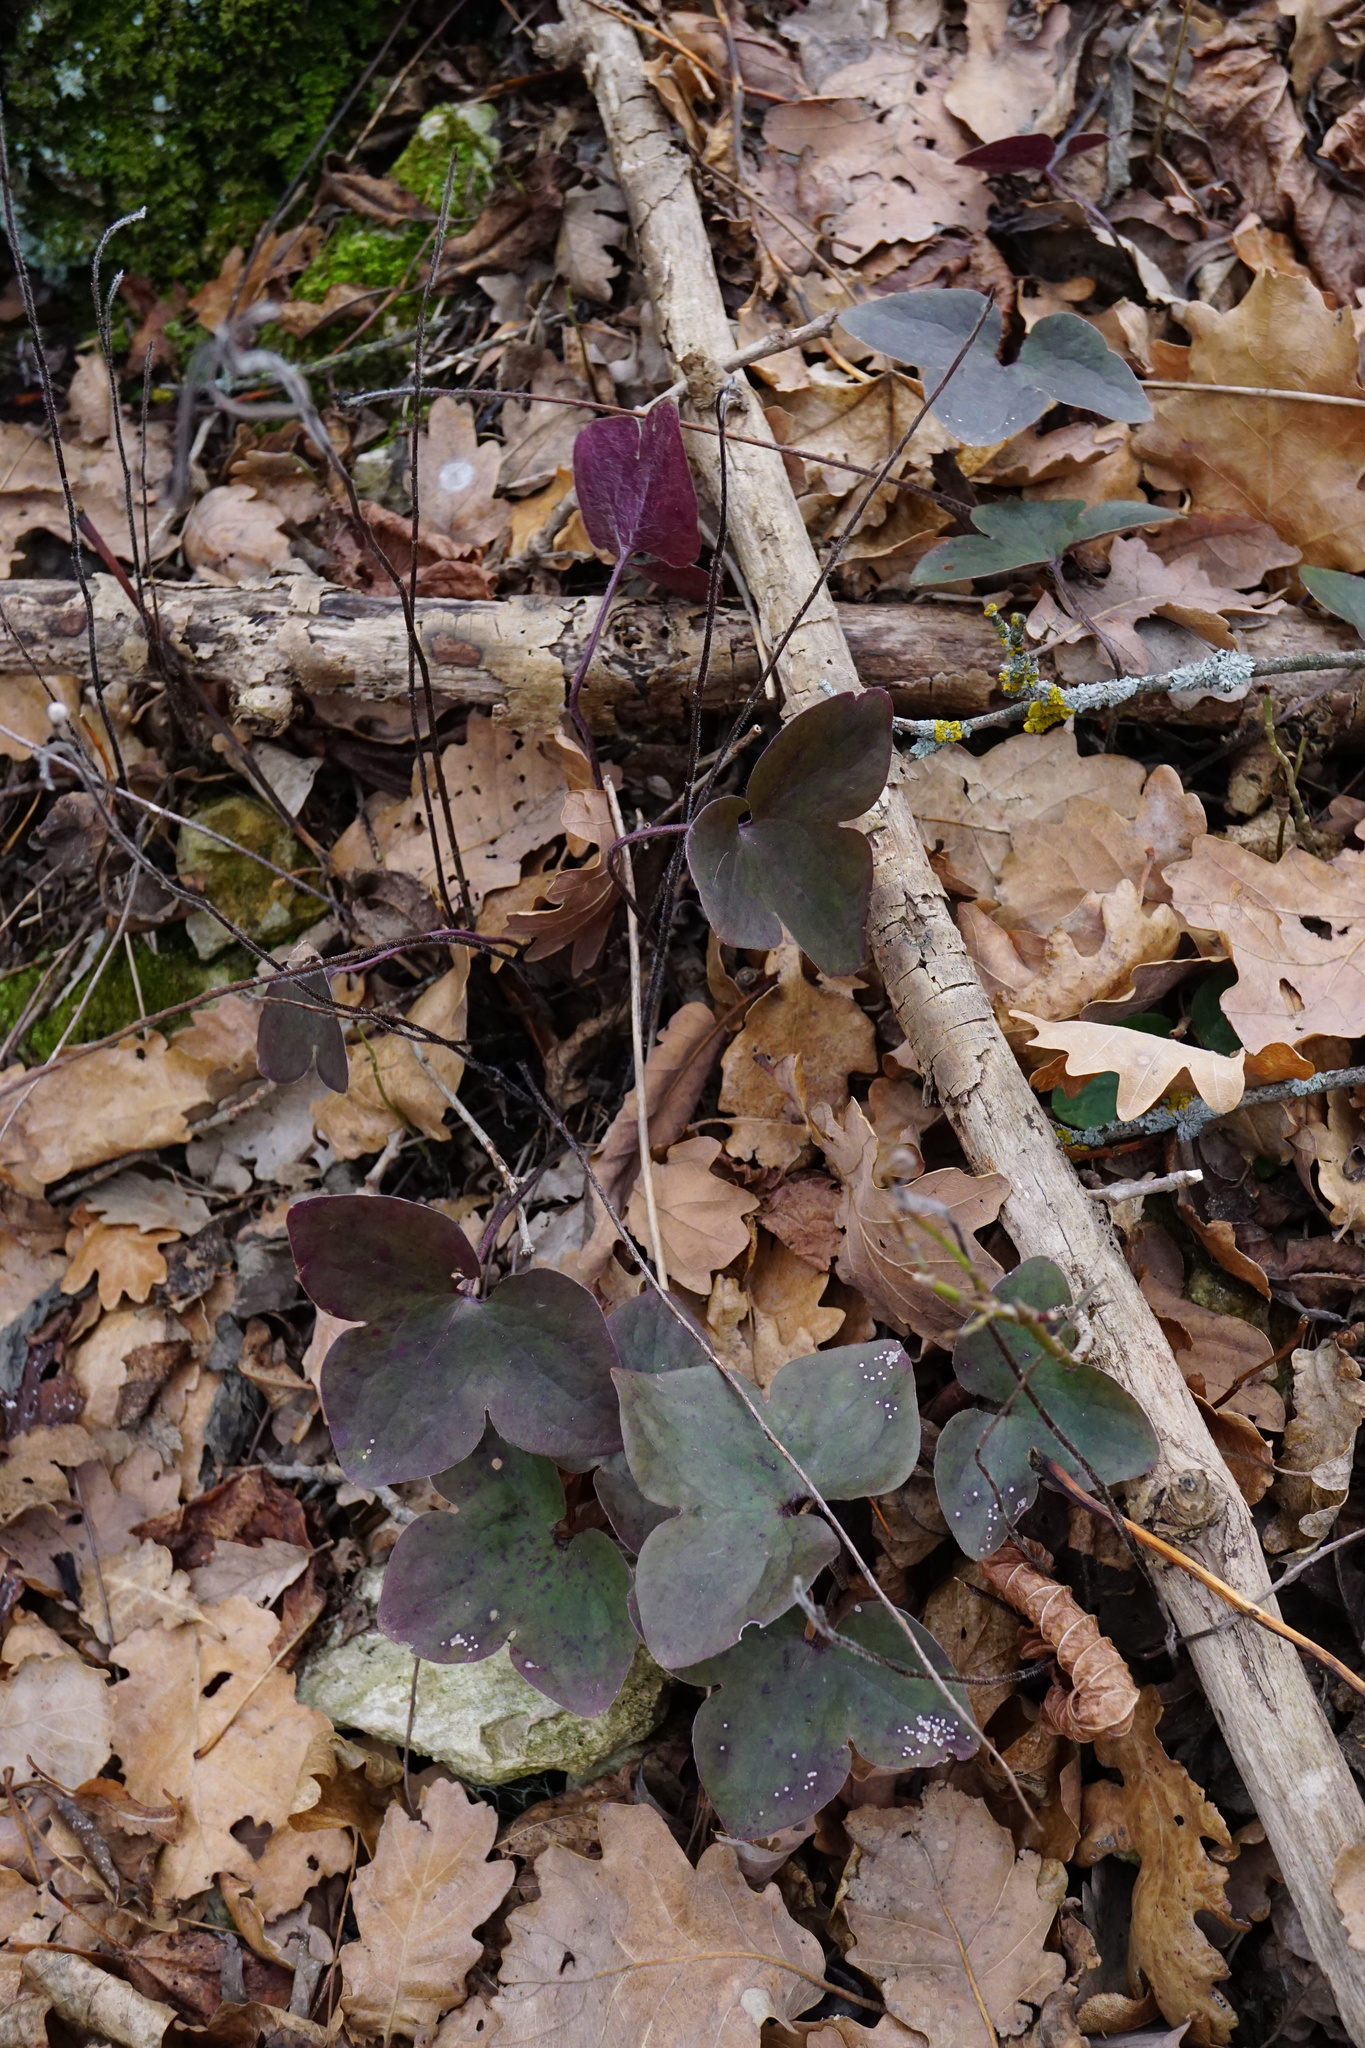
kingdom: Plantae
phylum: Tracheophyta
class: Magnoliopsida
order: Ranunculales
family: Ranunculaceae
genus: Hepatica
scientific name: Hepatica nobilis
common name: Liverleaf
